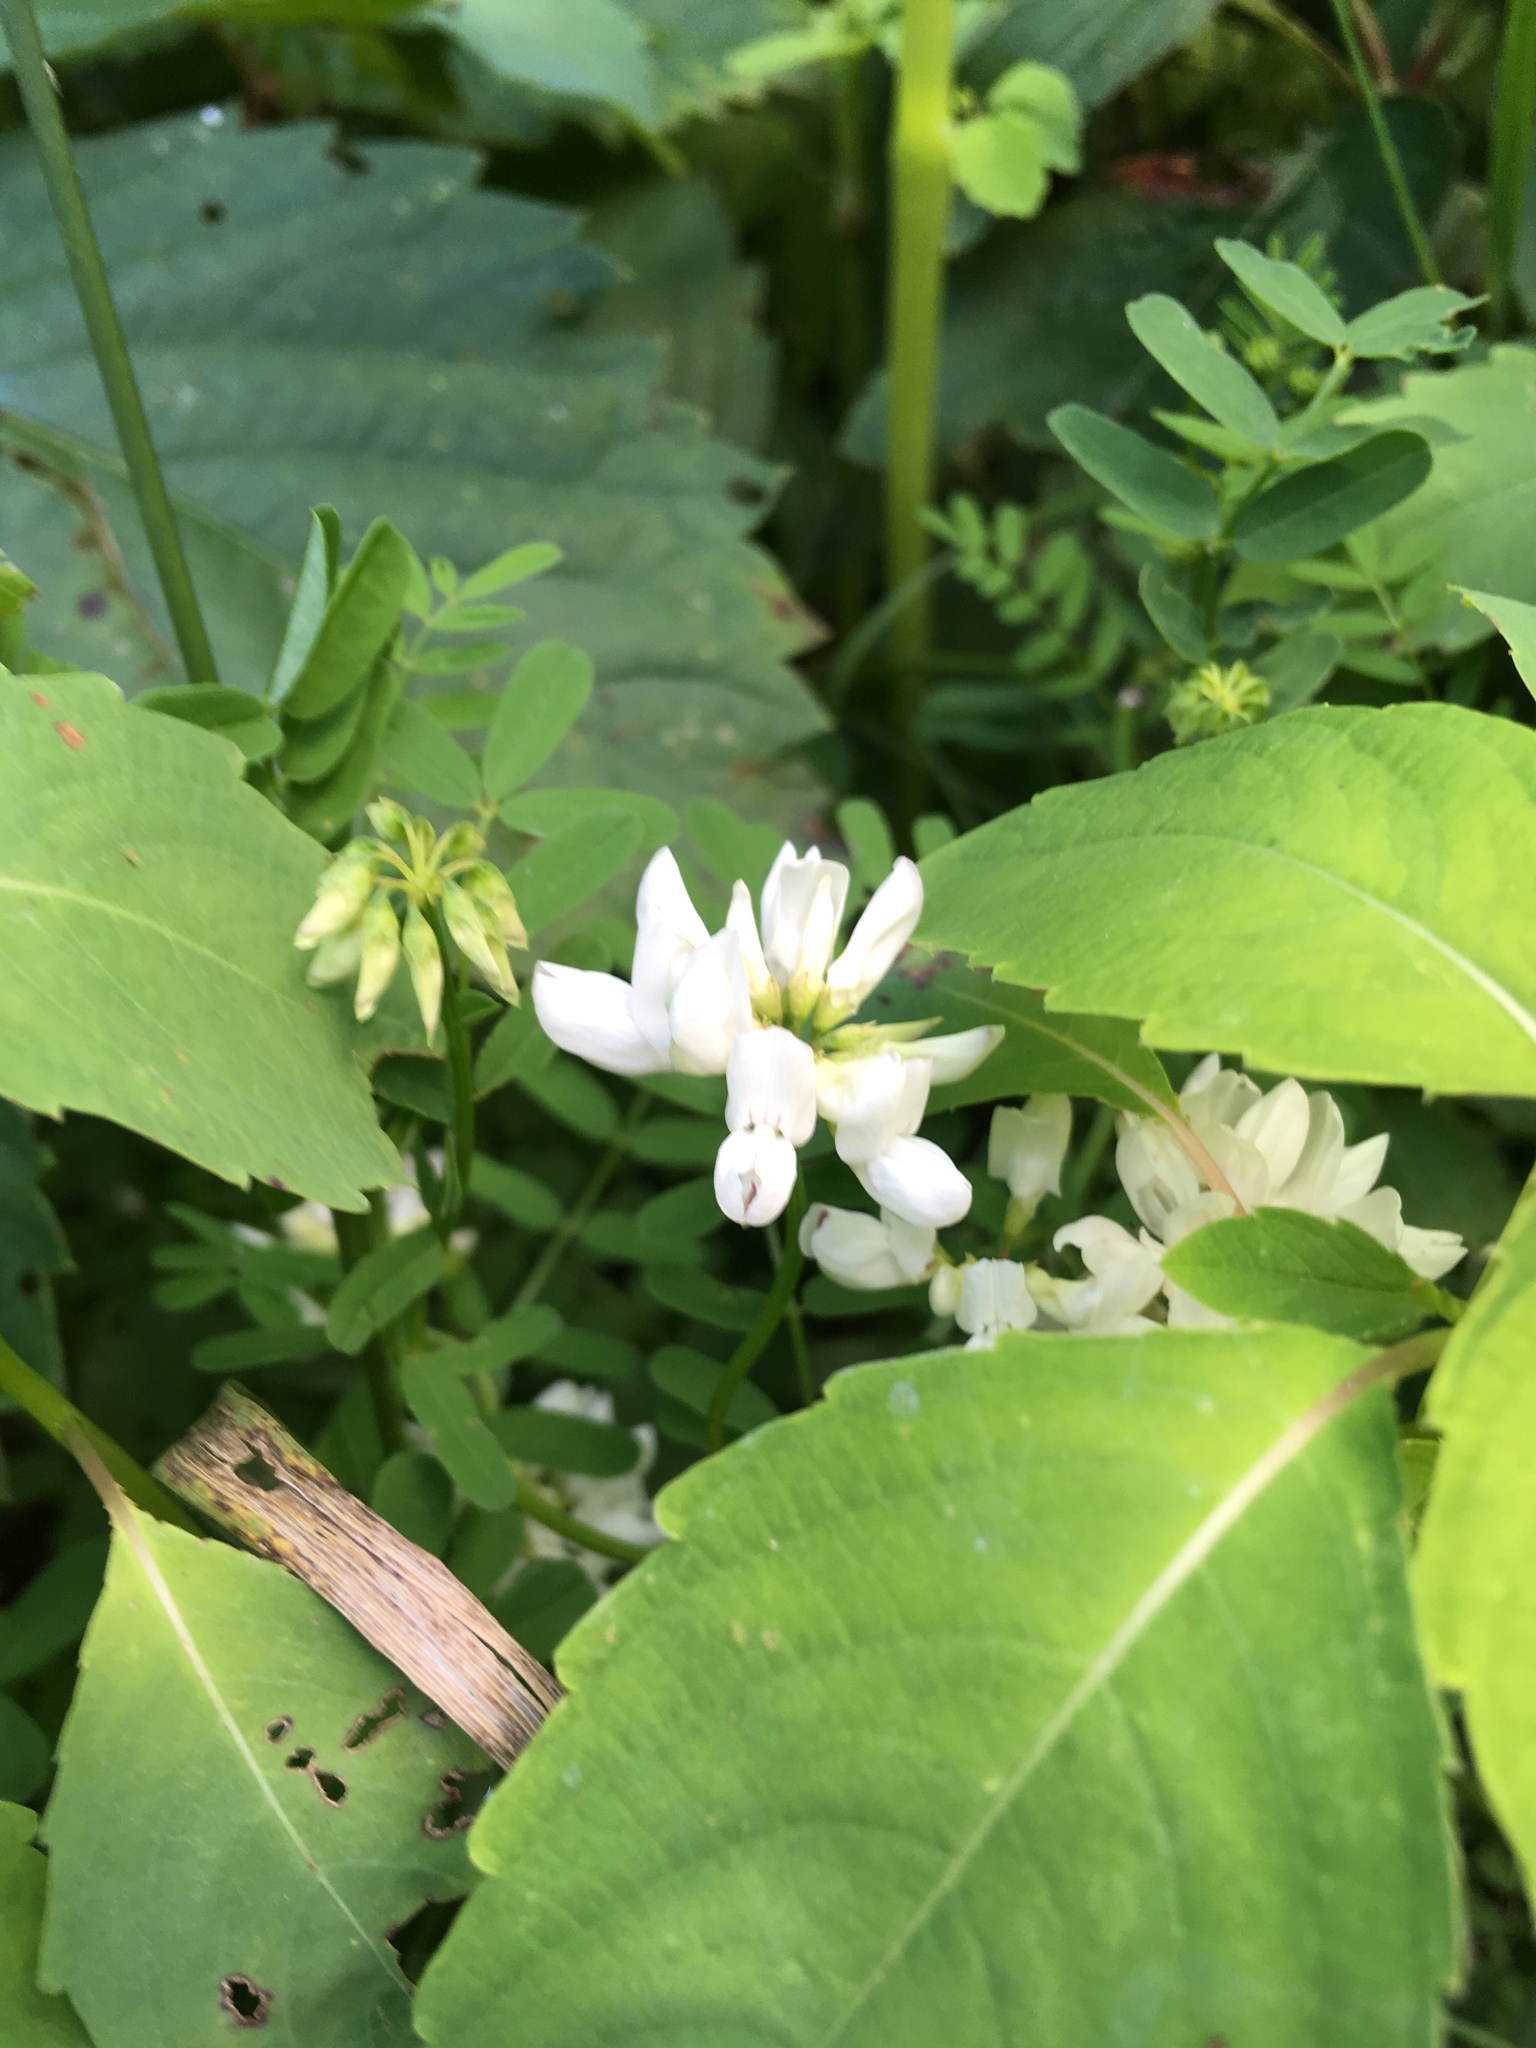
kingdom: Plantae
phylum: Tracheophyta
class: Magnoliopsida
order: Fabales
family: Fabaceae
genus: Coronilla
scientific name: Coronilla varia
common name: Crownvetch
